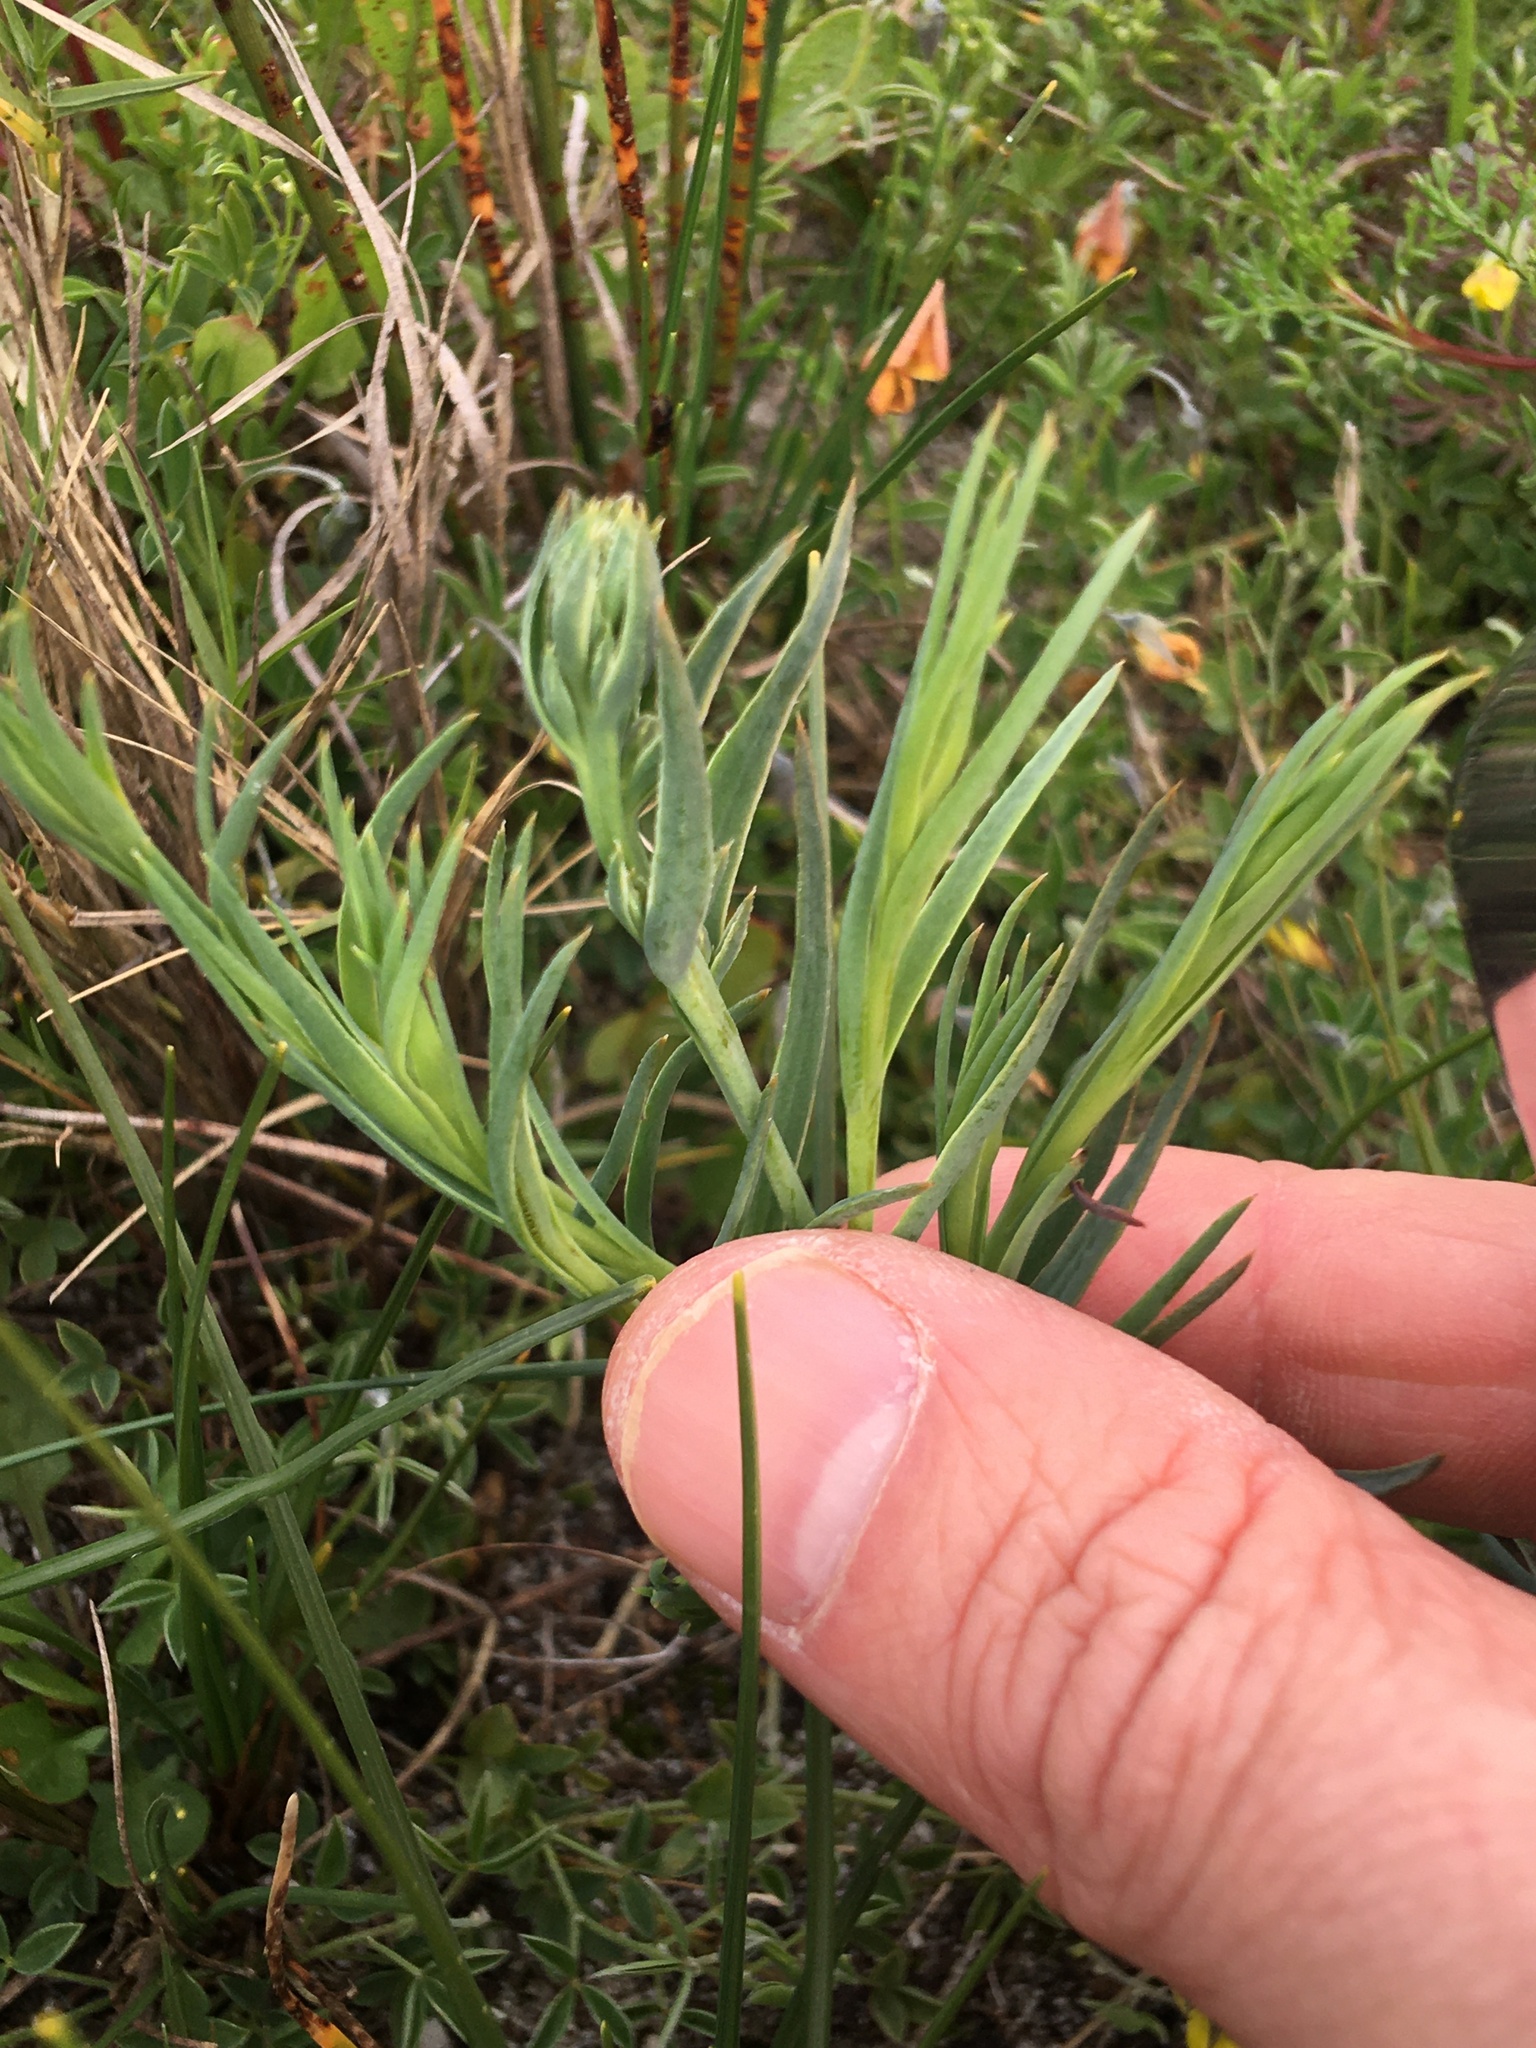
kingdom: Plantae
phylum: Tracheophyta
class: Magnoliopsida
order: Santalales
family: Thesiaceae
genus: Thesium
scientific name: Thesium
